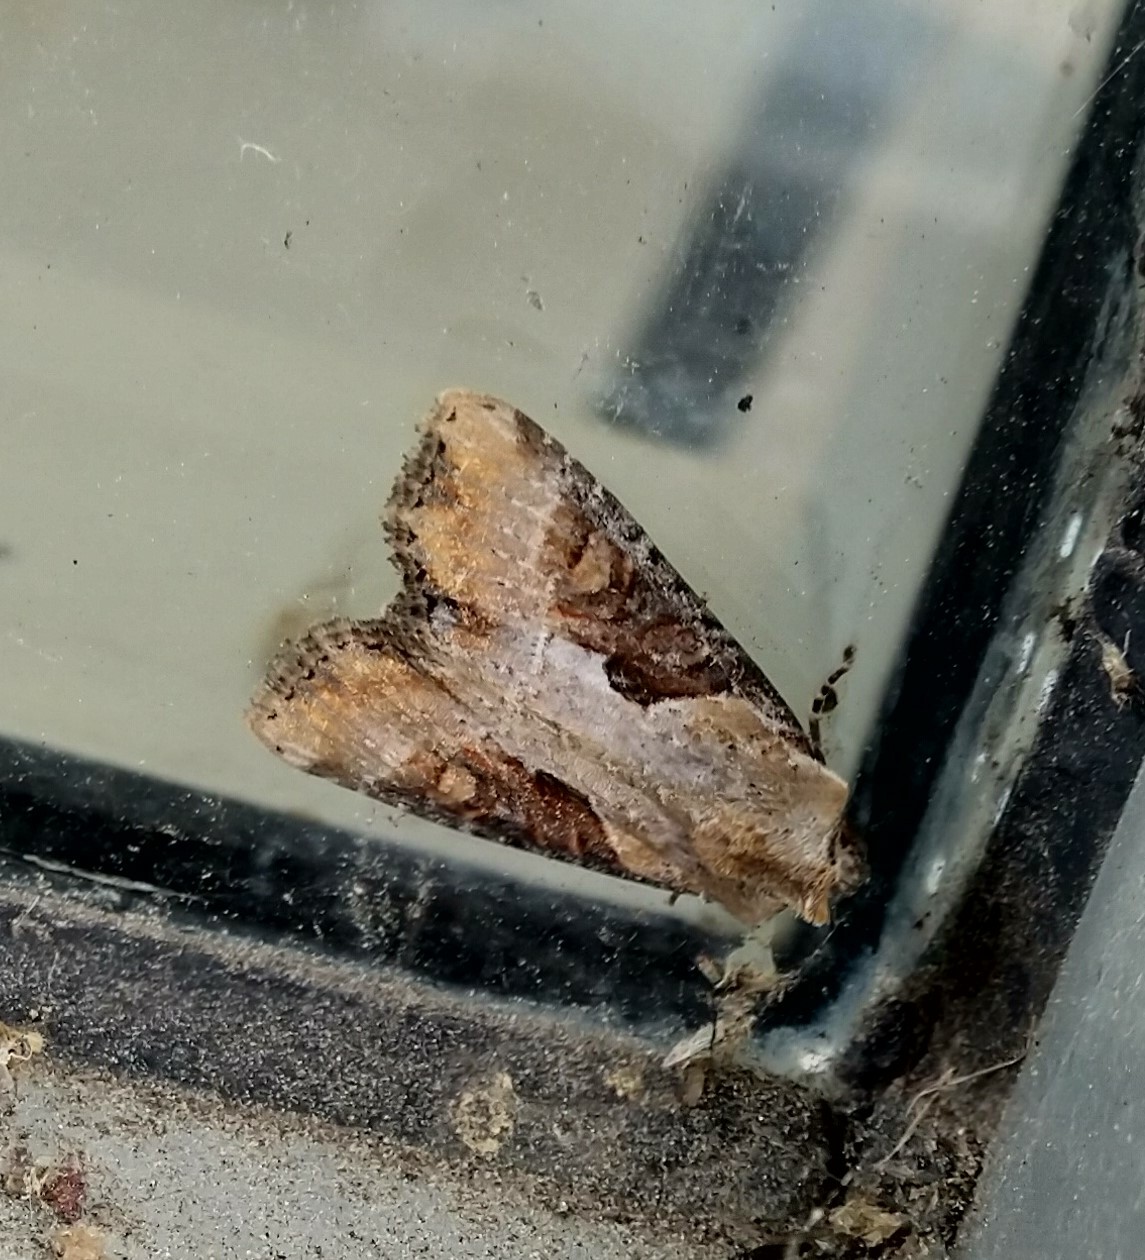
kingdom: Animalia
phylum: Arthropoda
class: Insecta
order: Lepidoptera
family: Noctuidae
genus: Lateroligia
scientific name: Lateroligia ophiogramma
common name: Double lobed
